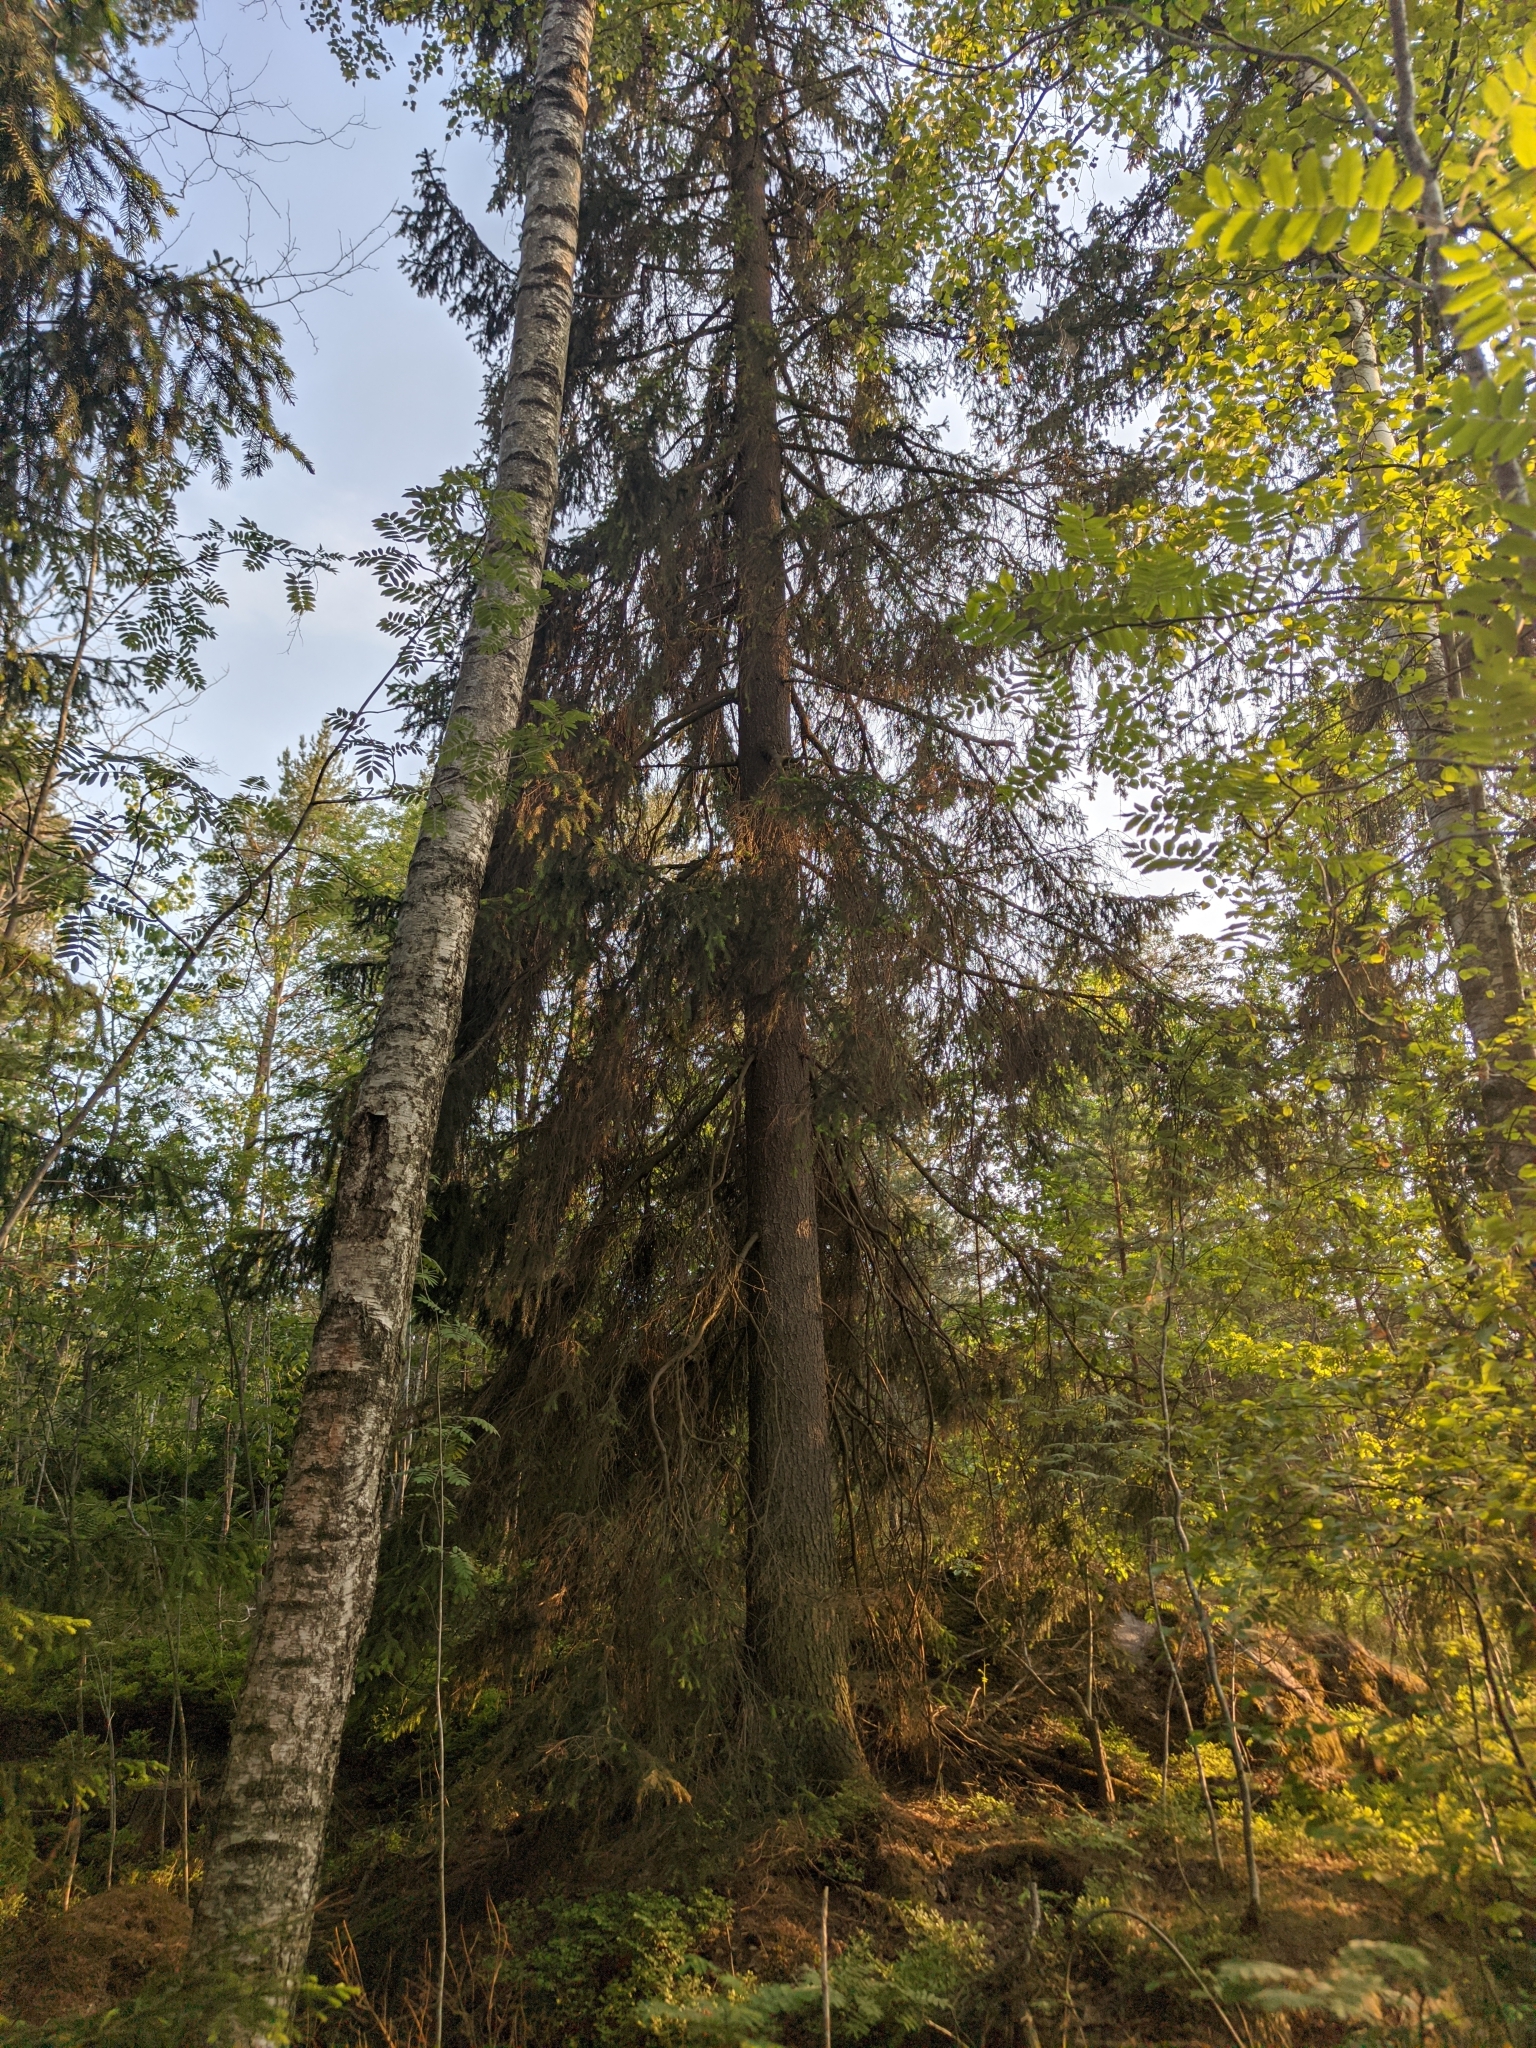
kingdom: Plantae
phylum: Tracheophyta
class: Pinopsida
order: Pinales
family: Pinaceae
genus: Picea
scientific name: Picea abies
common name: Norway spruce
